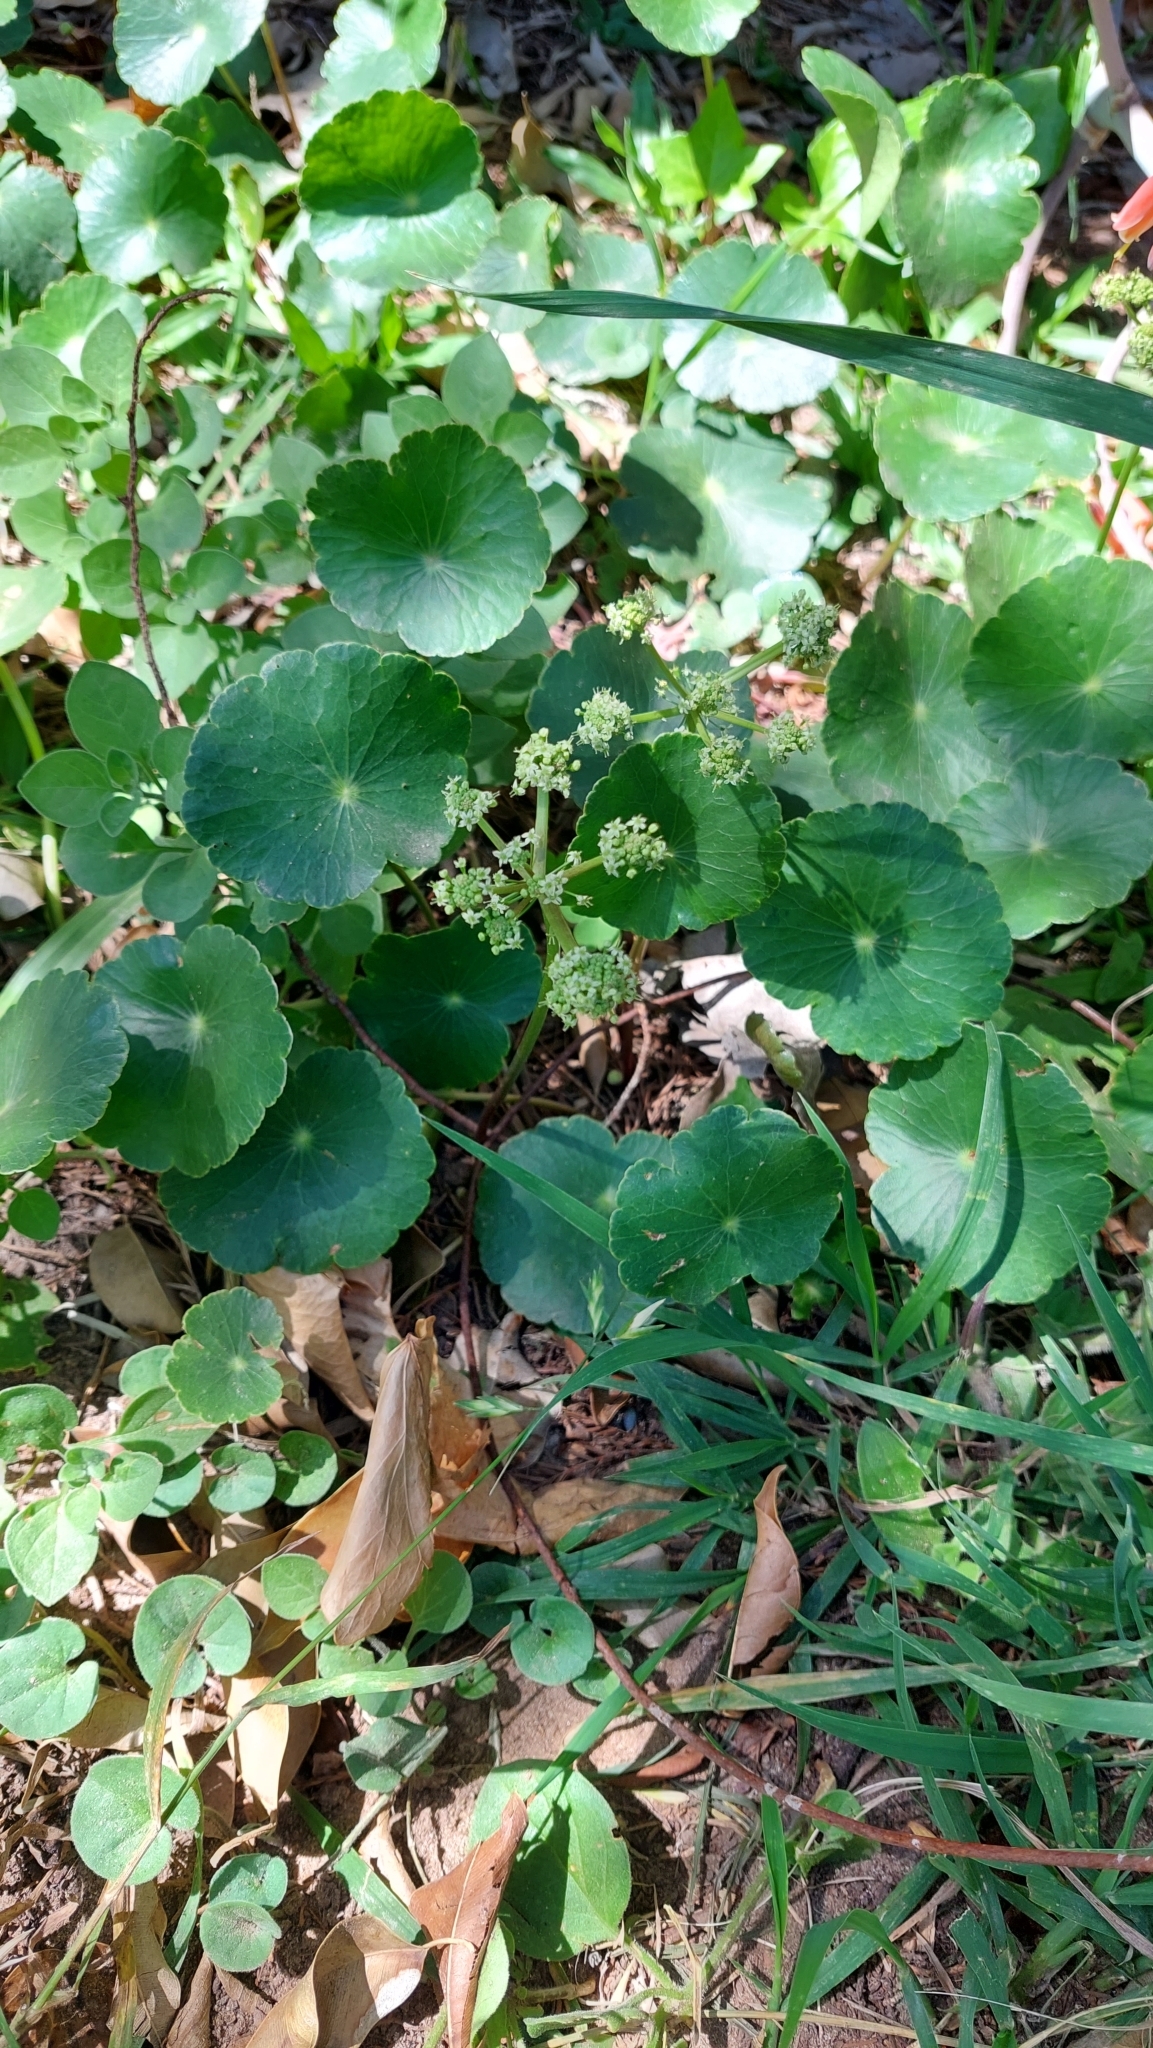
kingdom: Plantae
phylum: Tracheophyta
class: Magnoliopsida
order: Apiales
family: Araliaceae
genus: Hydrocotyle
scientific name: Hydrocotyle bonariensis
